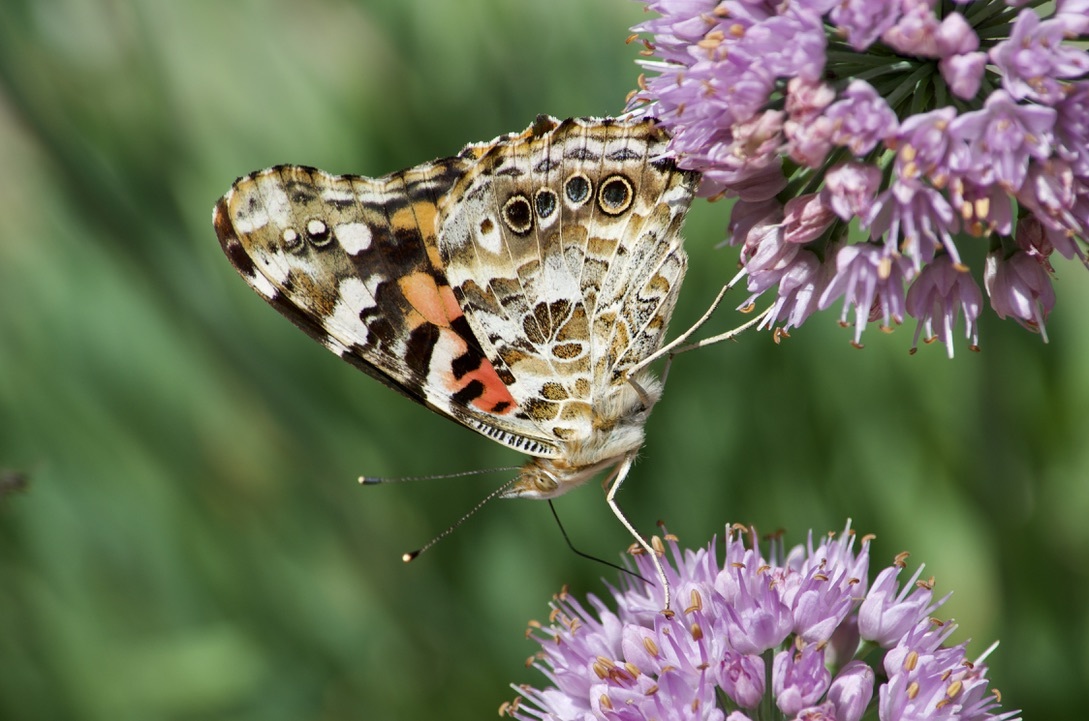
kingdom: Animalia
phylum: Arthropoda
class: Insecta
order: Lepidoptera
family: Nymphalidae
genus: Vanessa
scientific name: Vanessa cardui
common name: Painted lady
